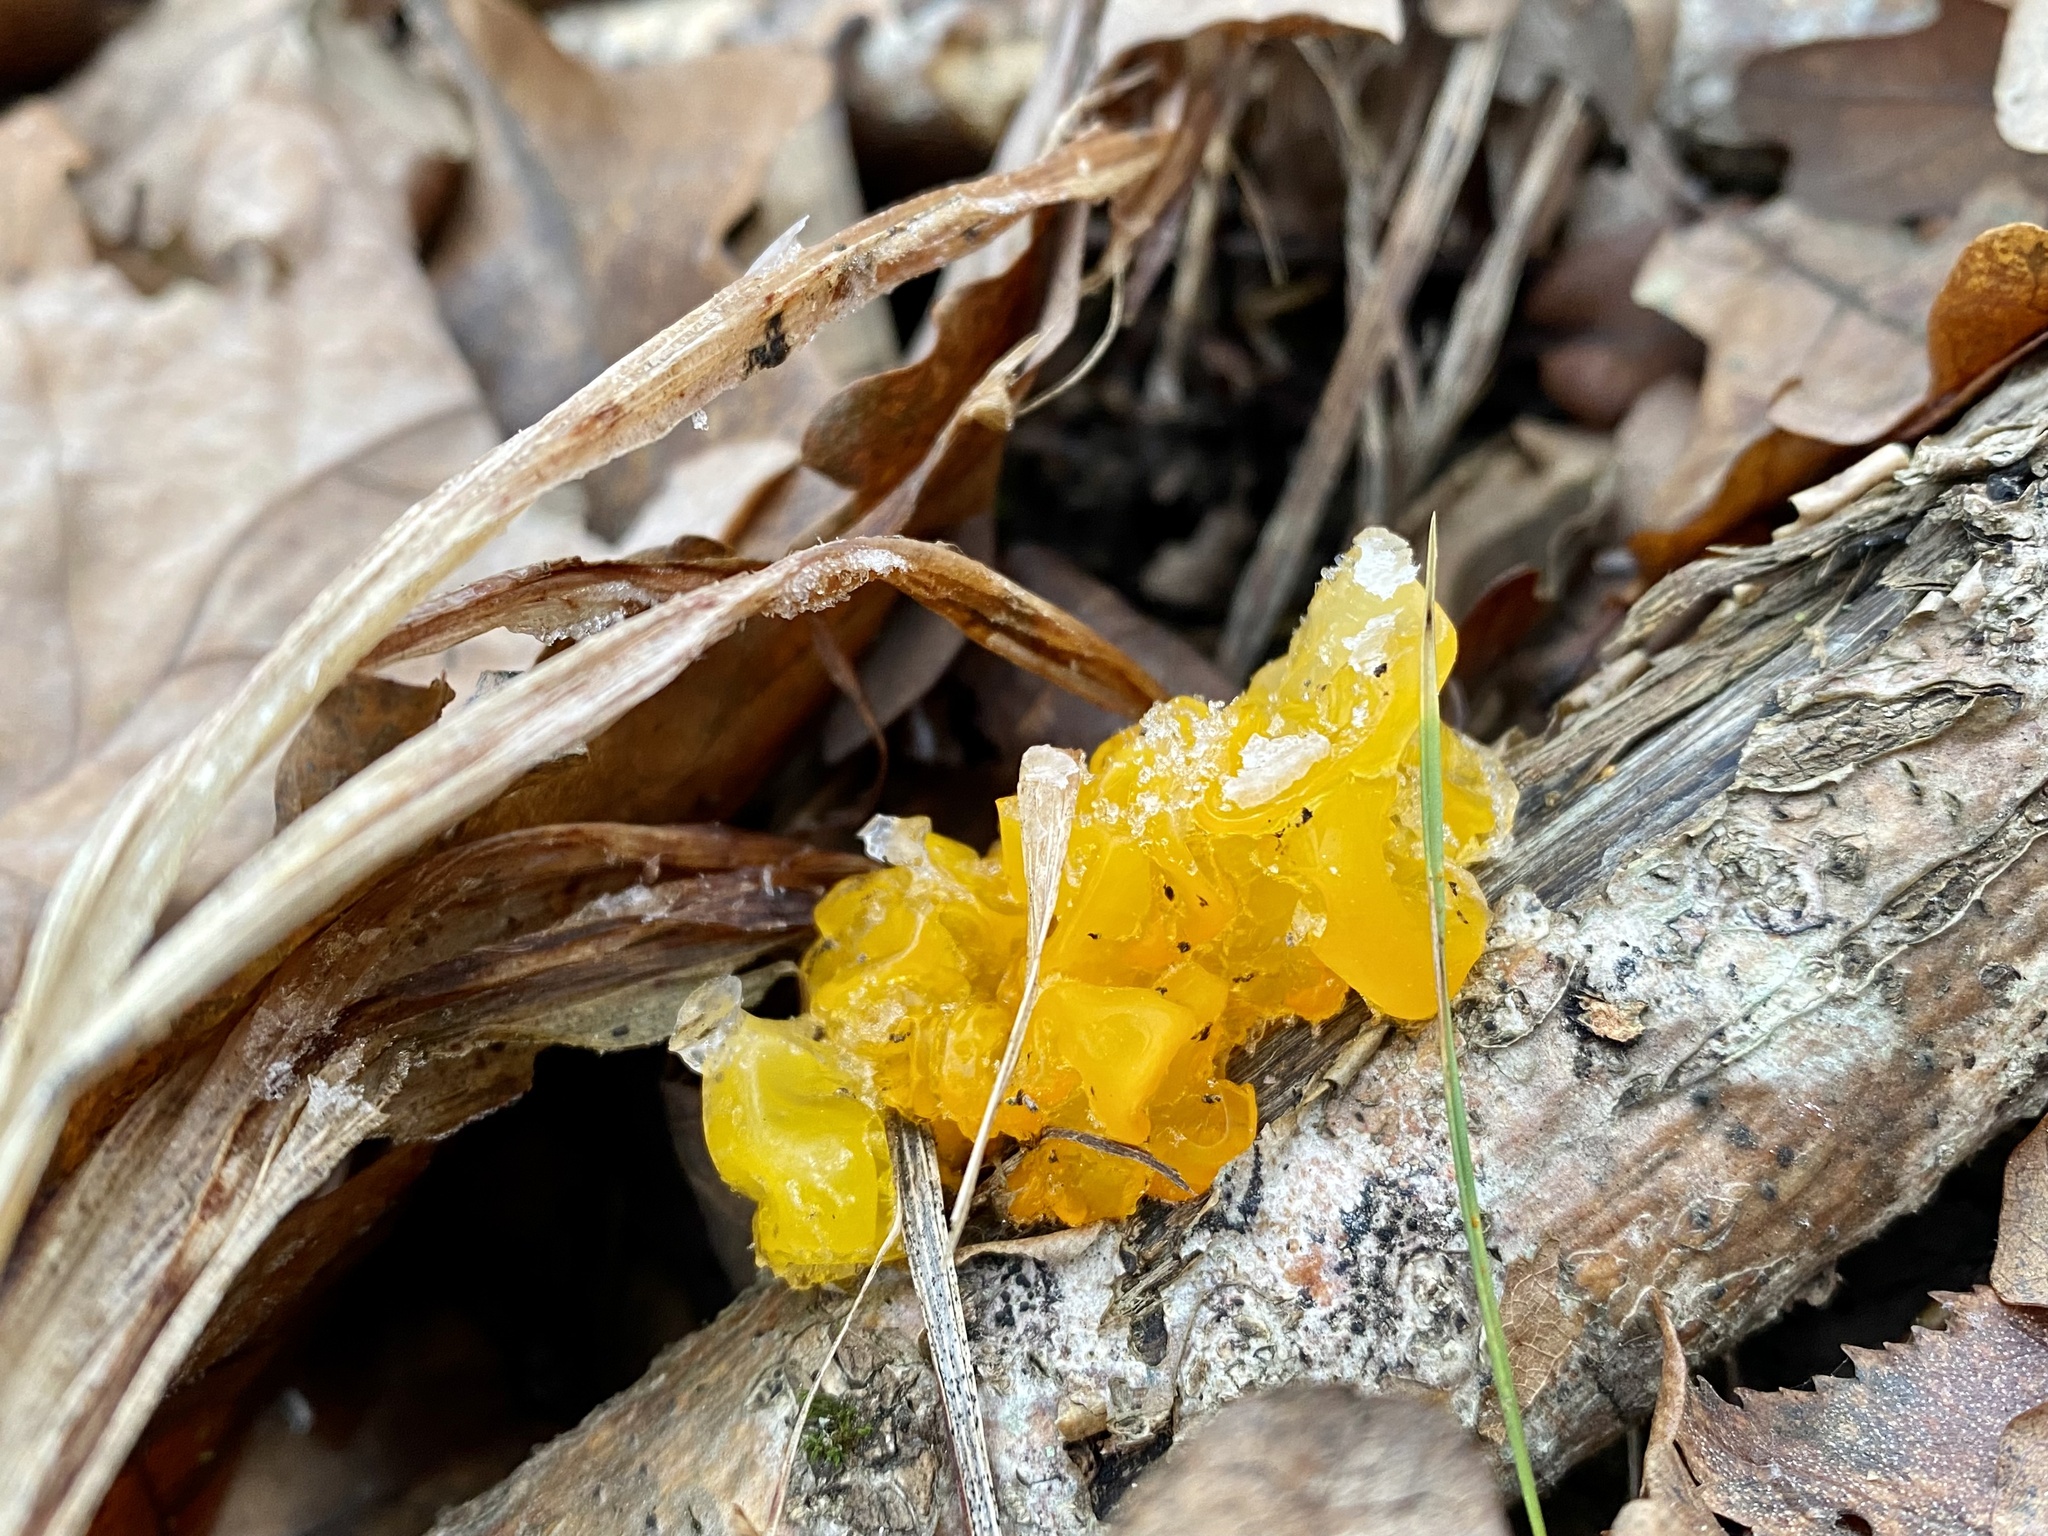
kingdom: Fungi
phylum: Basidiomycota
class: Tremellomycetes
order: Tremellales
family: Tremellaceae
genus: Tremella
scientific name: Tremella mesenterica
